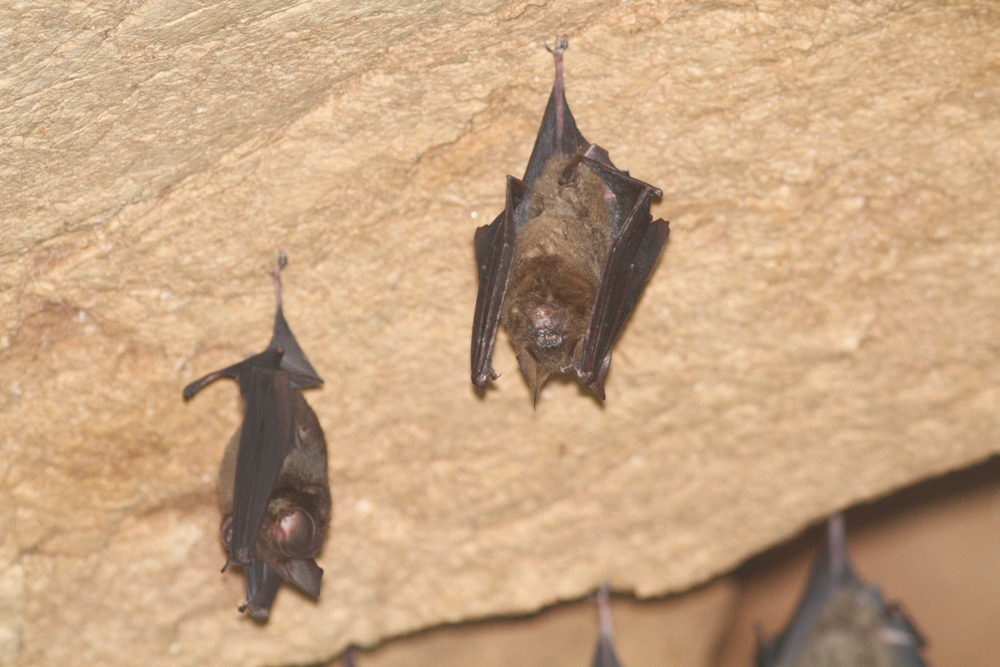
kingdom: Animalia
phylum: Chordata
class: Mammalia
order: Chiroptera
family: Hipposideridae
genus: Hipposideros
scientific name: Hipposideros armiger
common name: Great leaf-nosed bat
